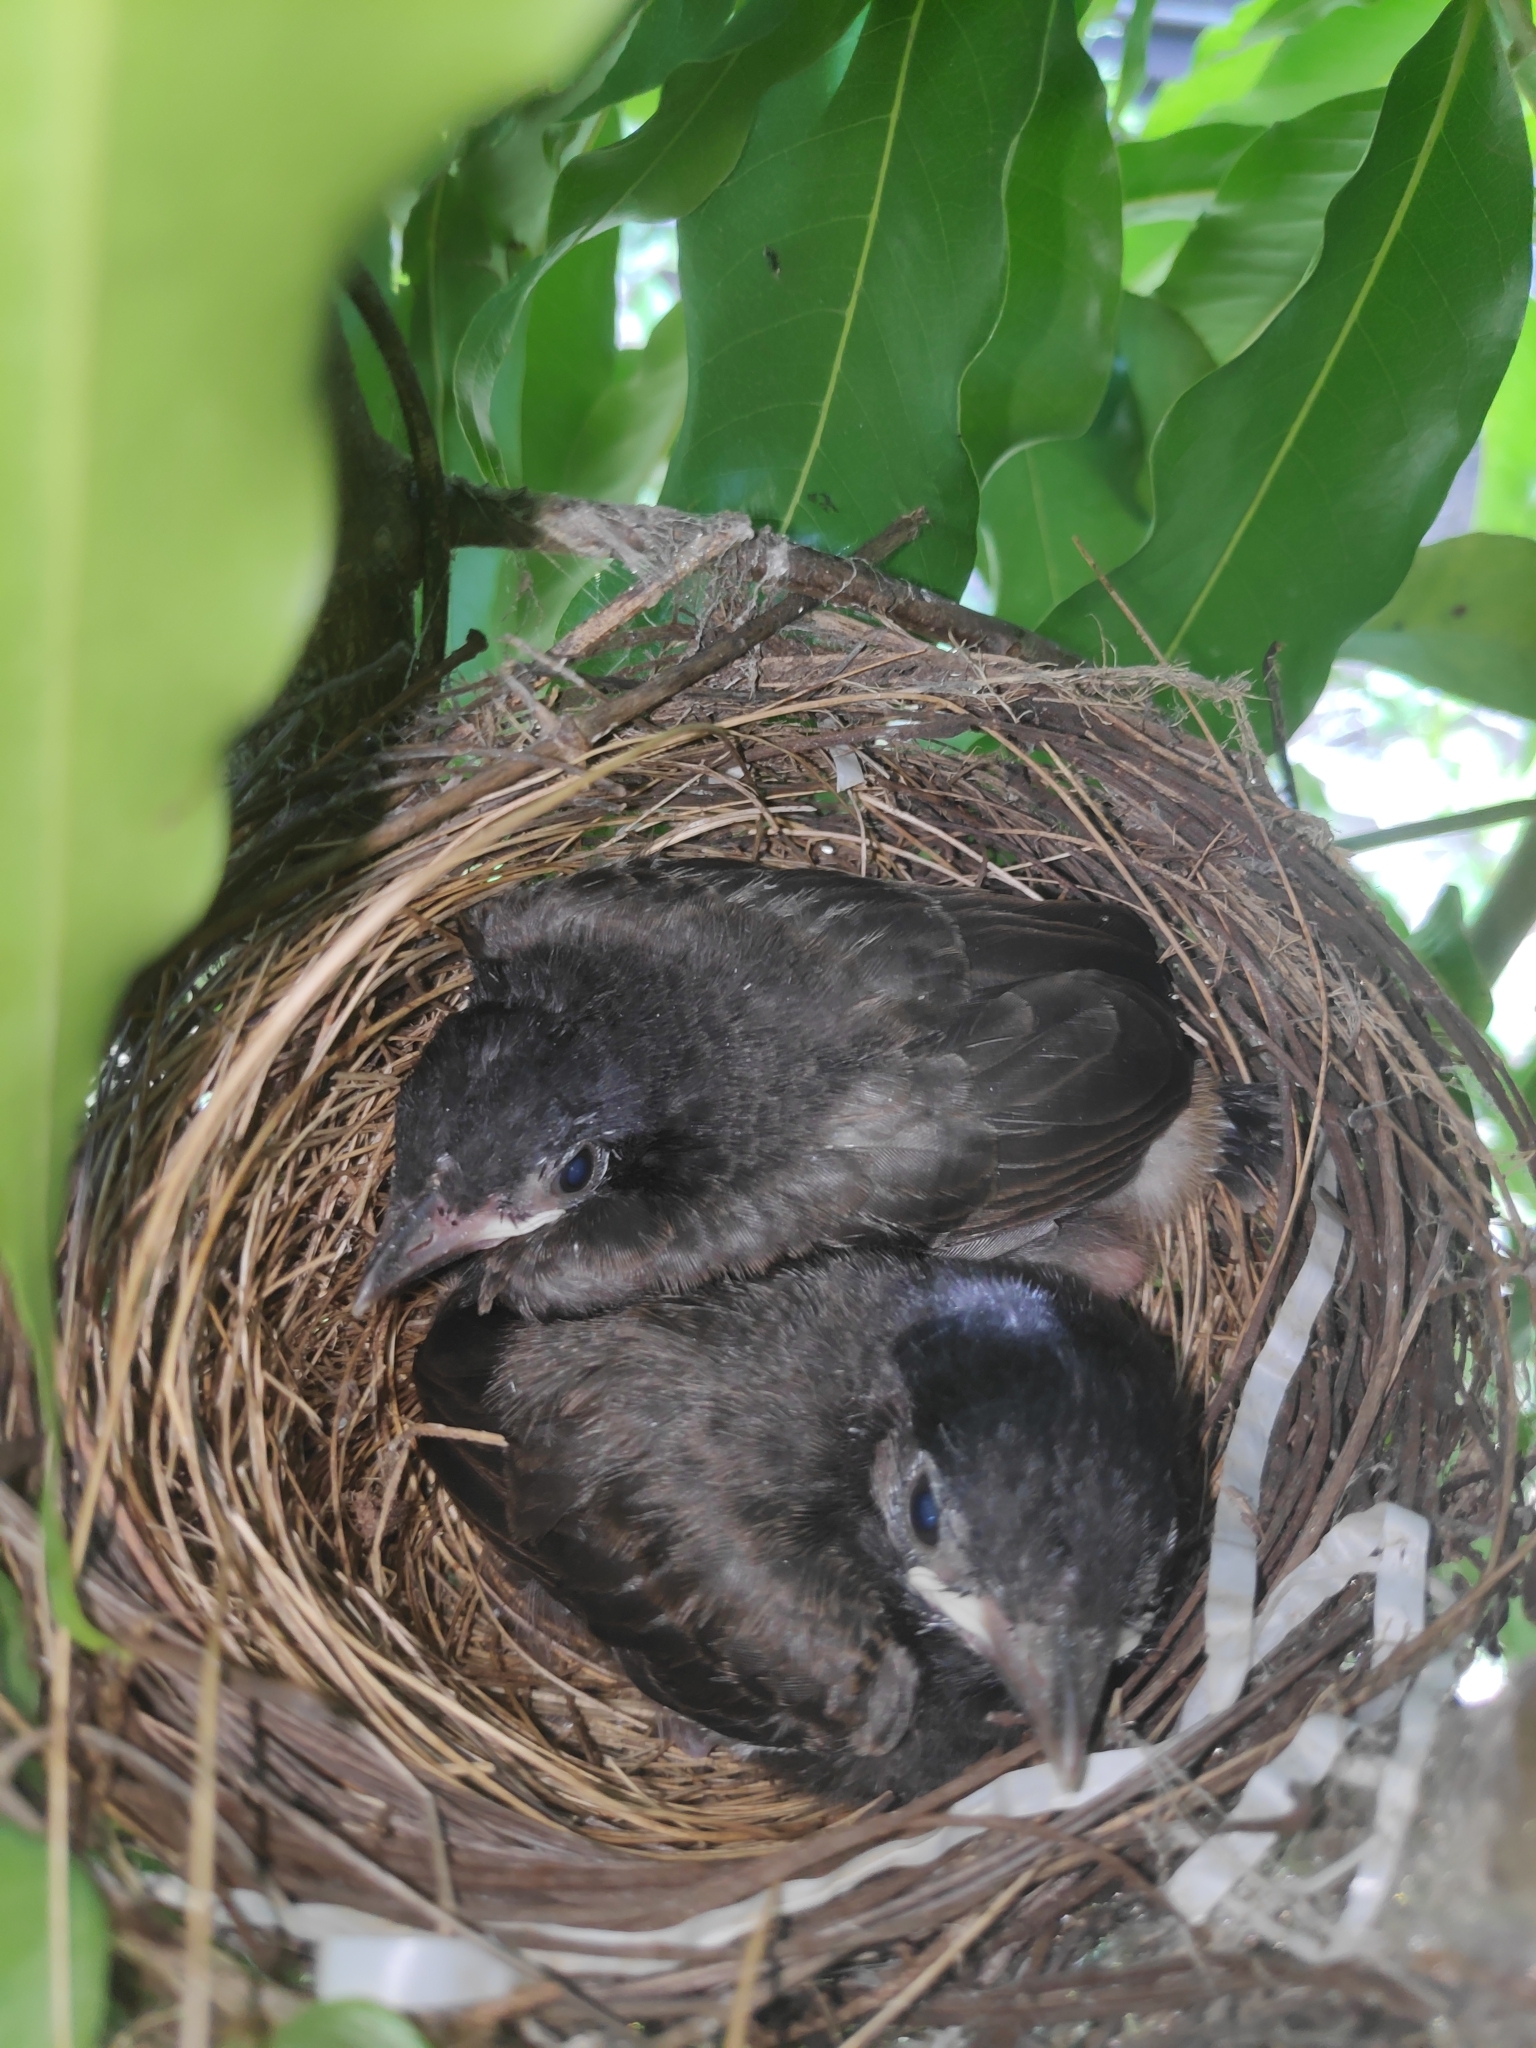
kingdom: Animalia
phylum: Chordata
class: Aves
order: Passeriformes
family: Muscicapidae
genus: Copsychus
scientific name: Copsychus saularis
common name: Oriental magpie-robin
